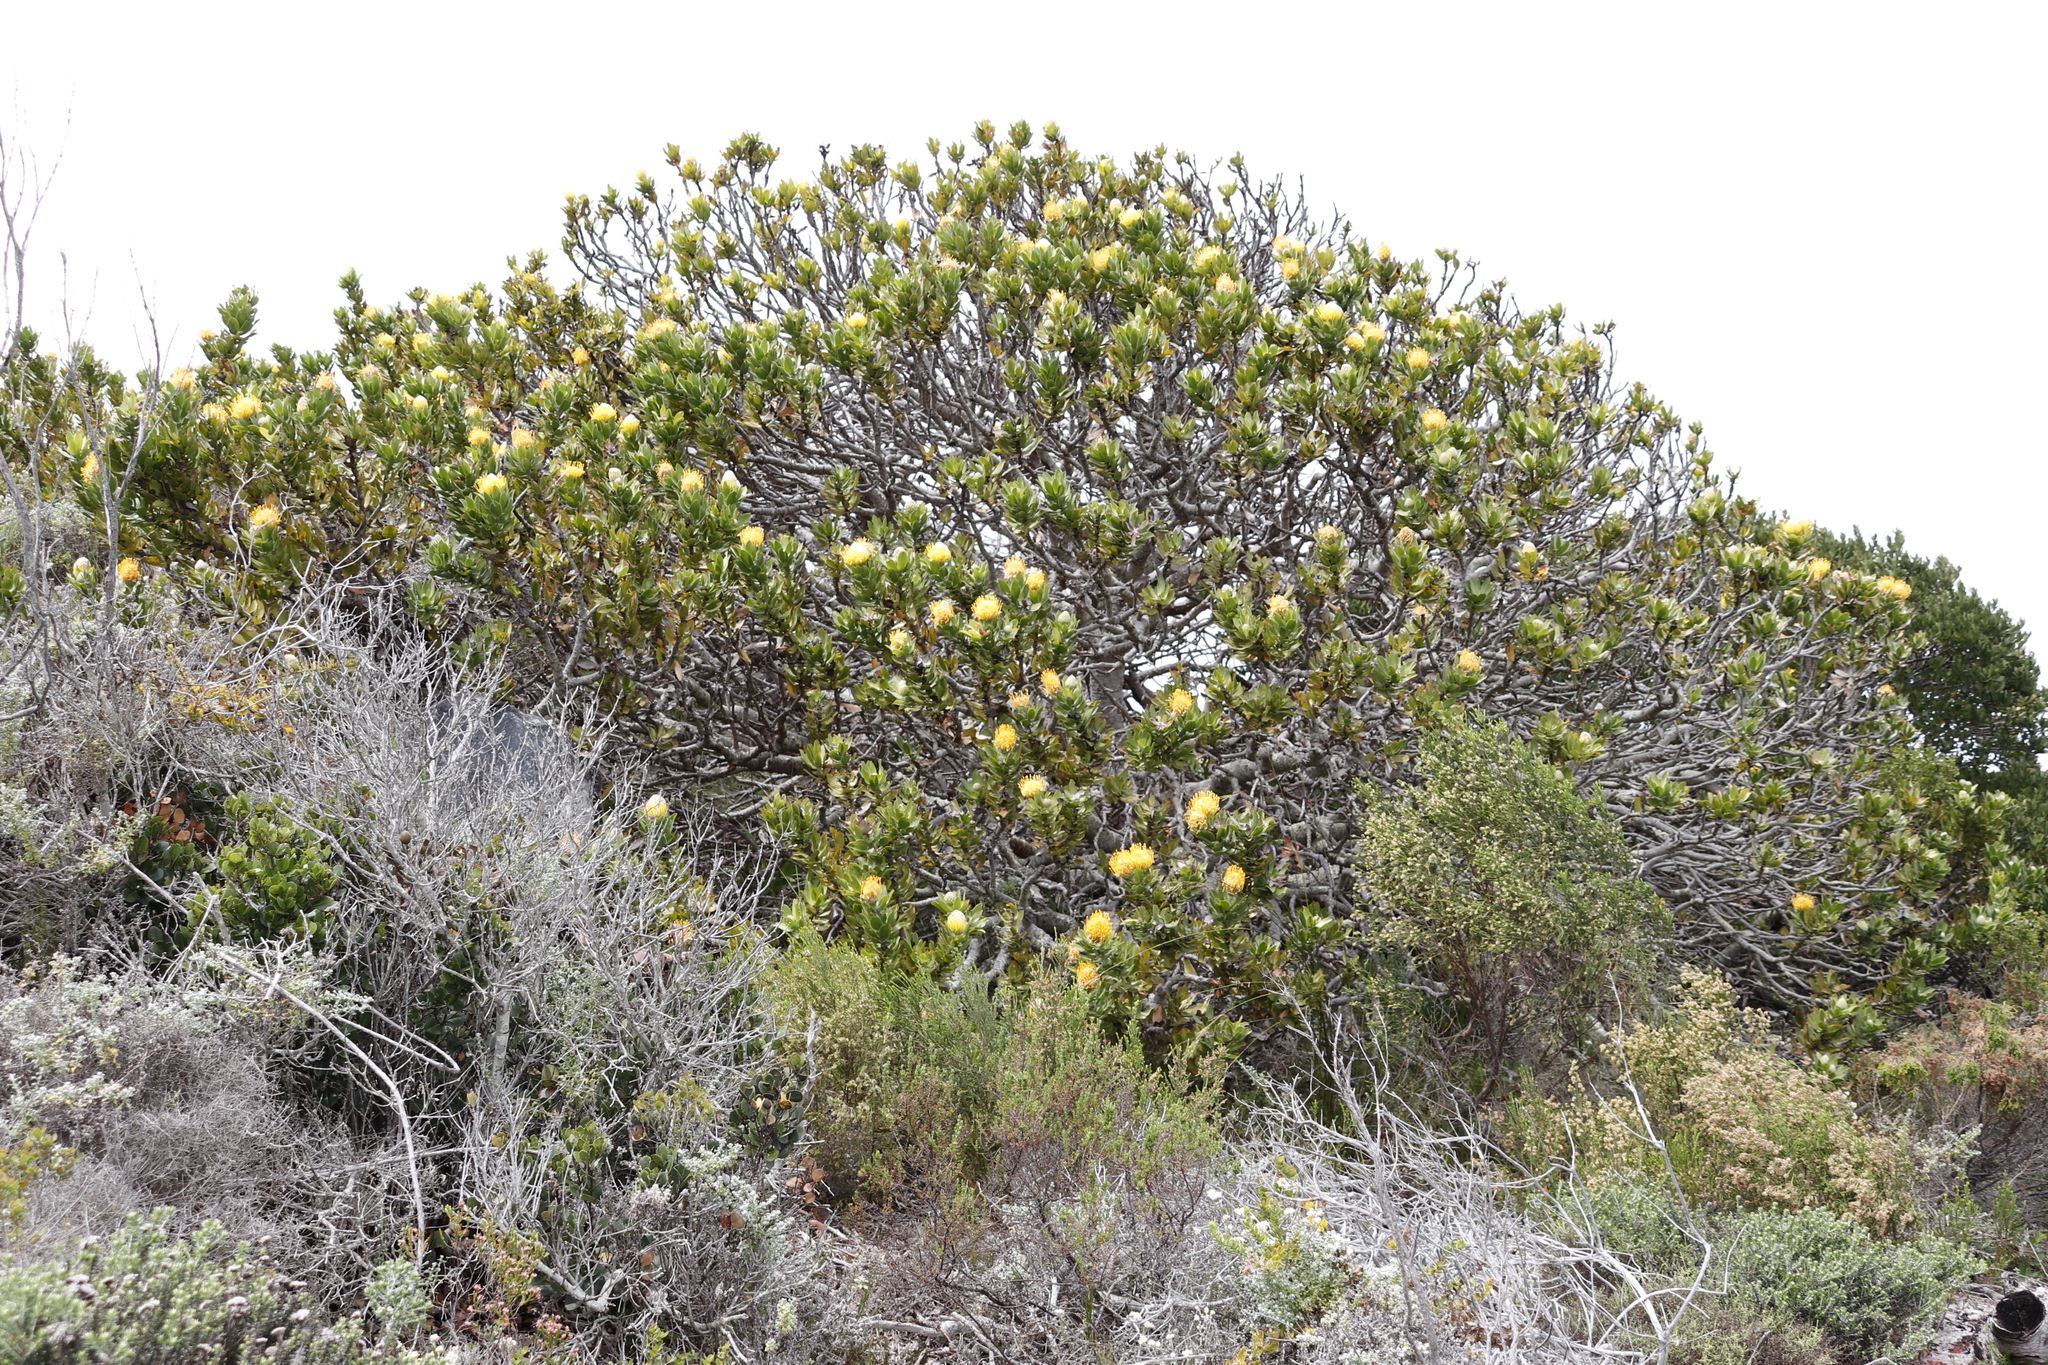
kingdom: Plantae
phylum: Tracheophyta
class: Magnoliopsida
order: Proteales
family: Proteaceae
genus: Leucospermum
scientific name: Leucospermum conocarpodendron
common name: Tree pincushion
